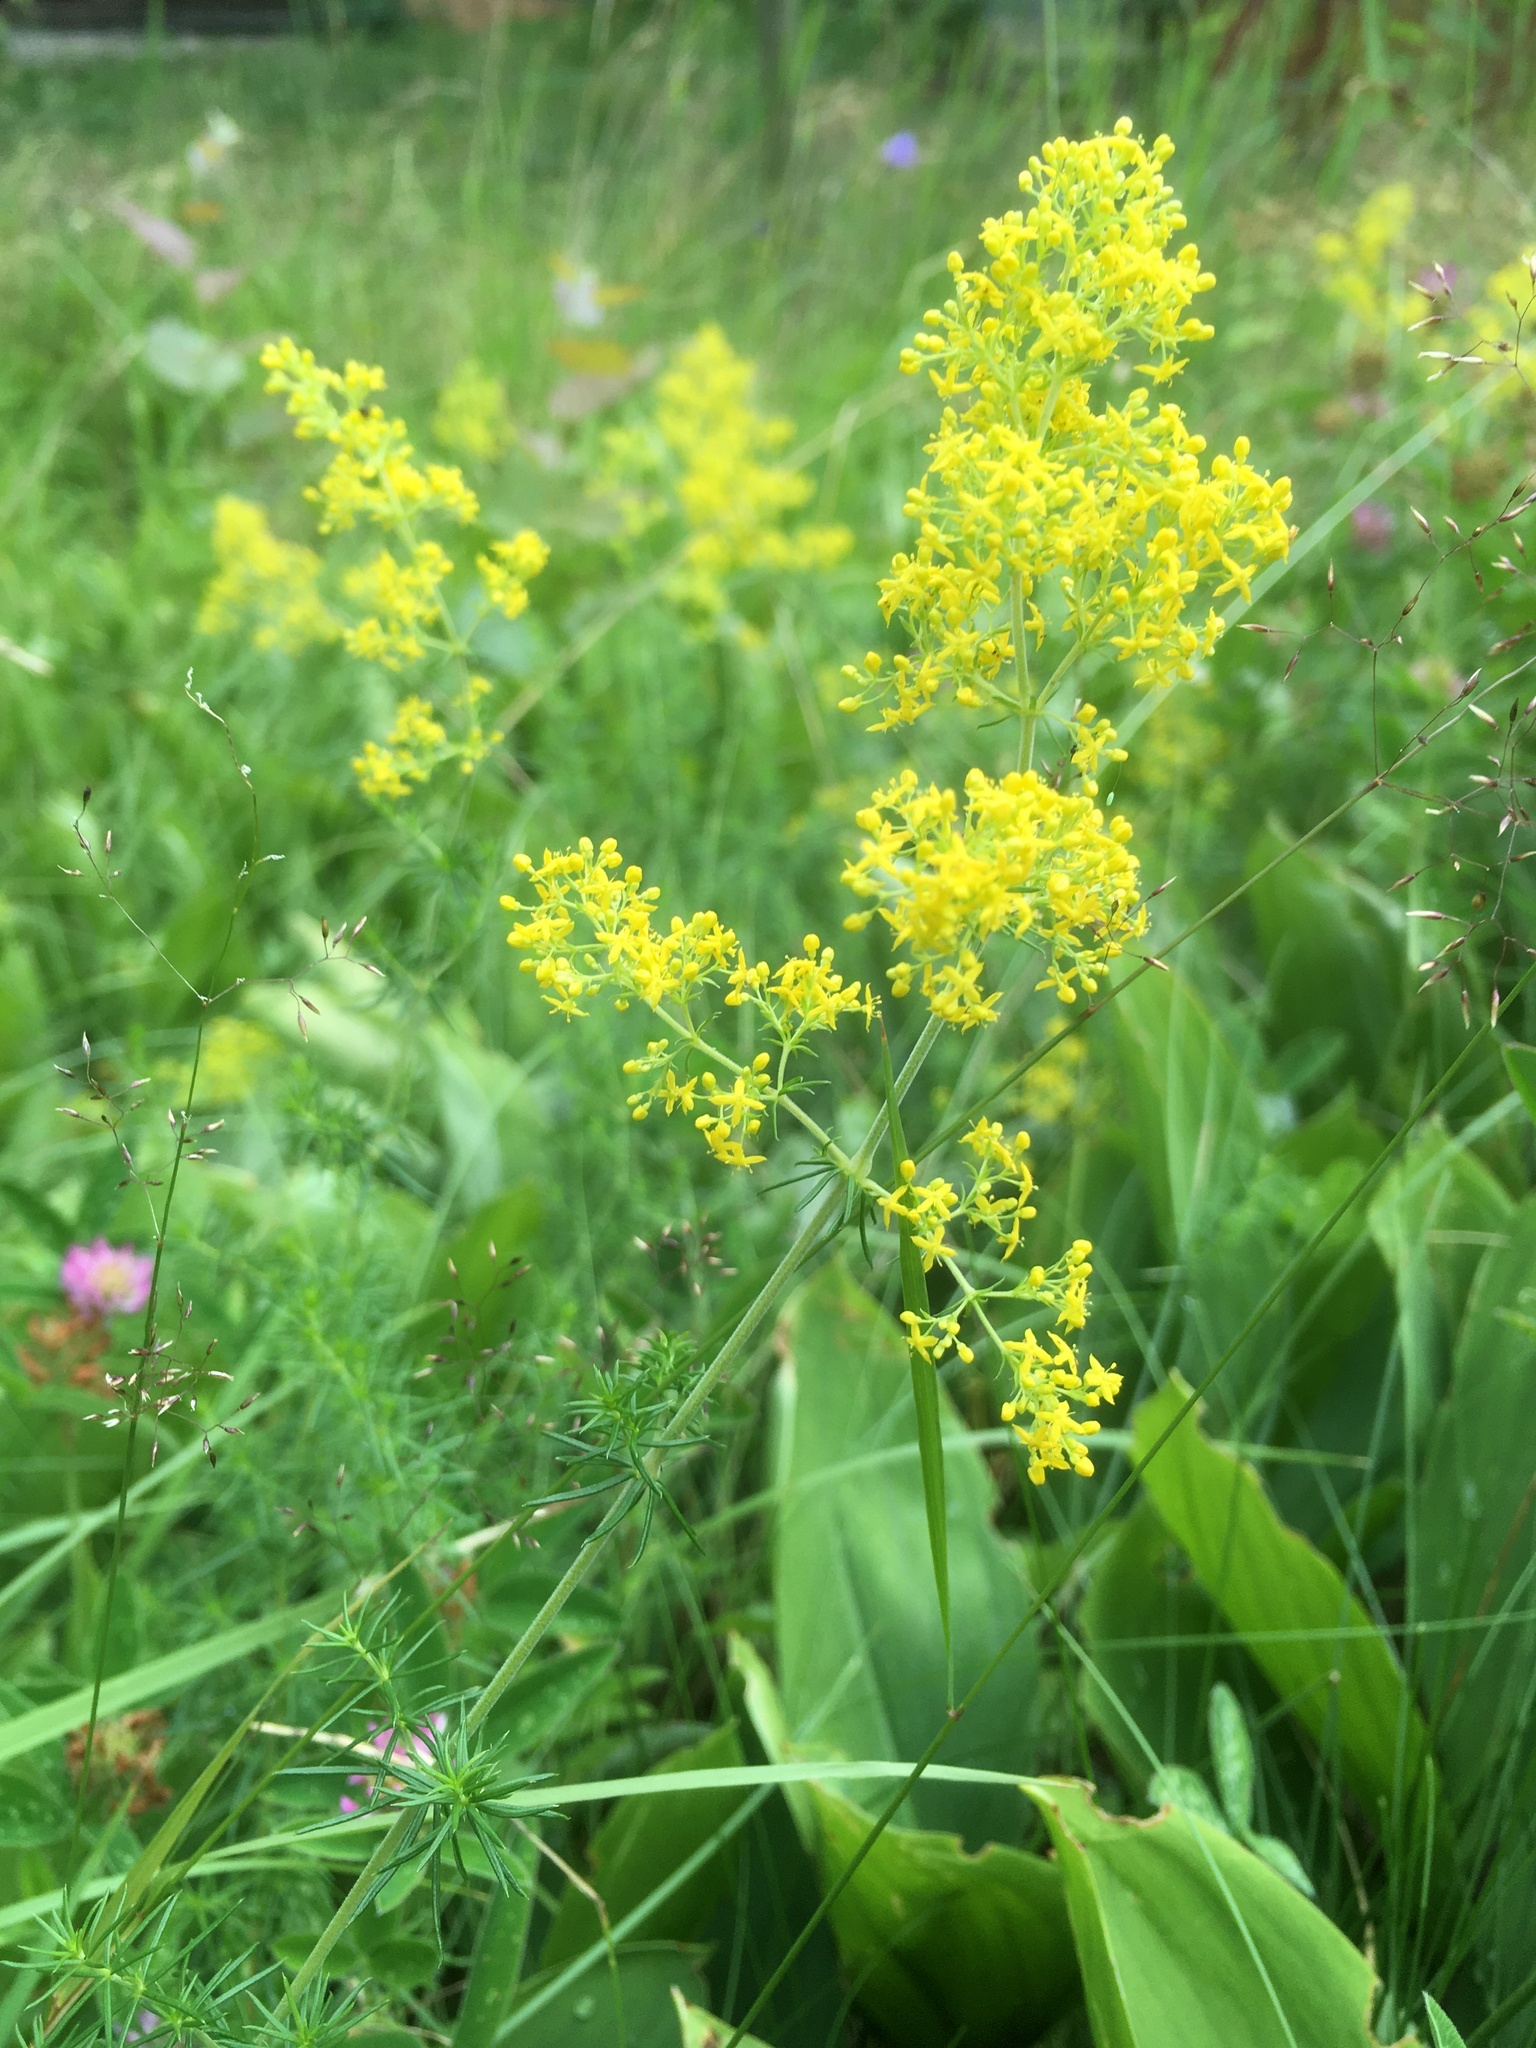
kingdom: Plantae
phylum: Tracheophyta
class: Magnoliopsida
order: Gentianales
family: Rubiaceae
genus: Galium
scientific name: Galium verum
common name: Lady's bedstraw
